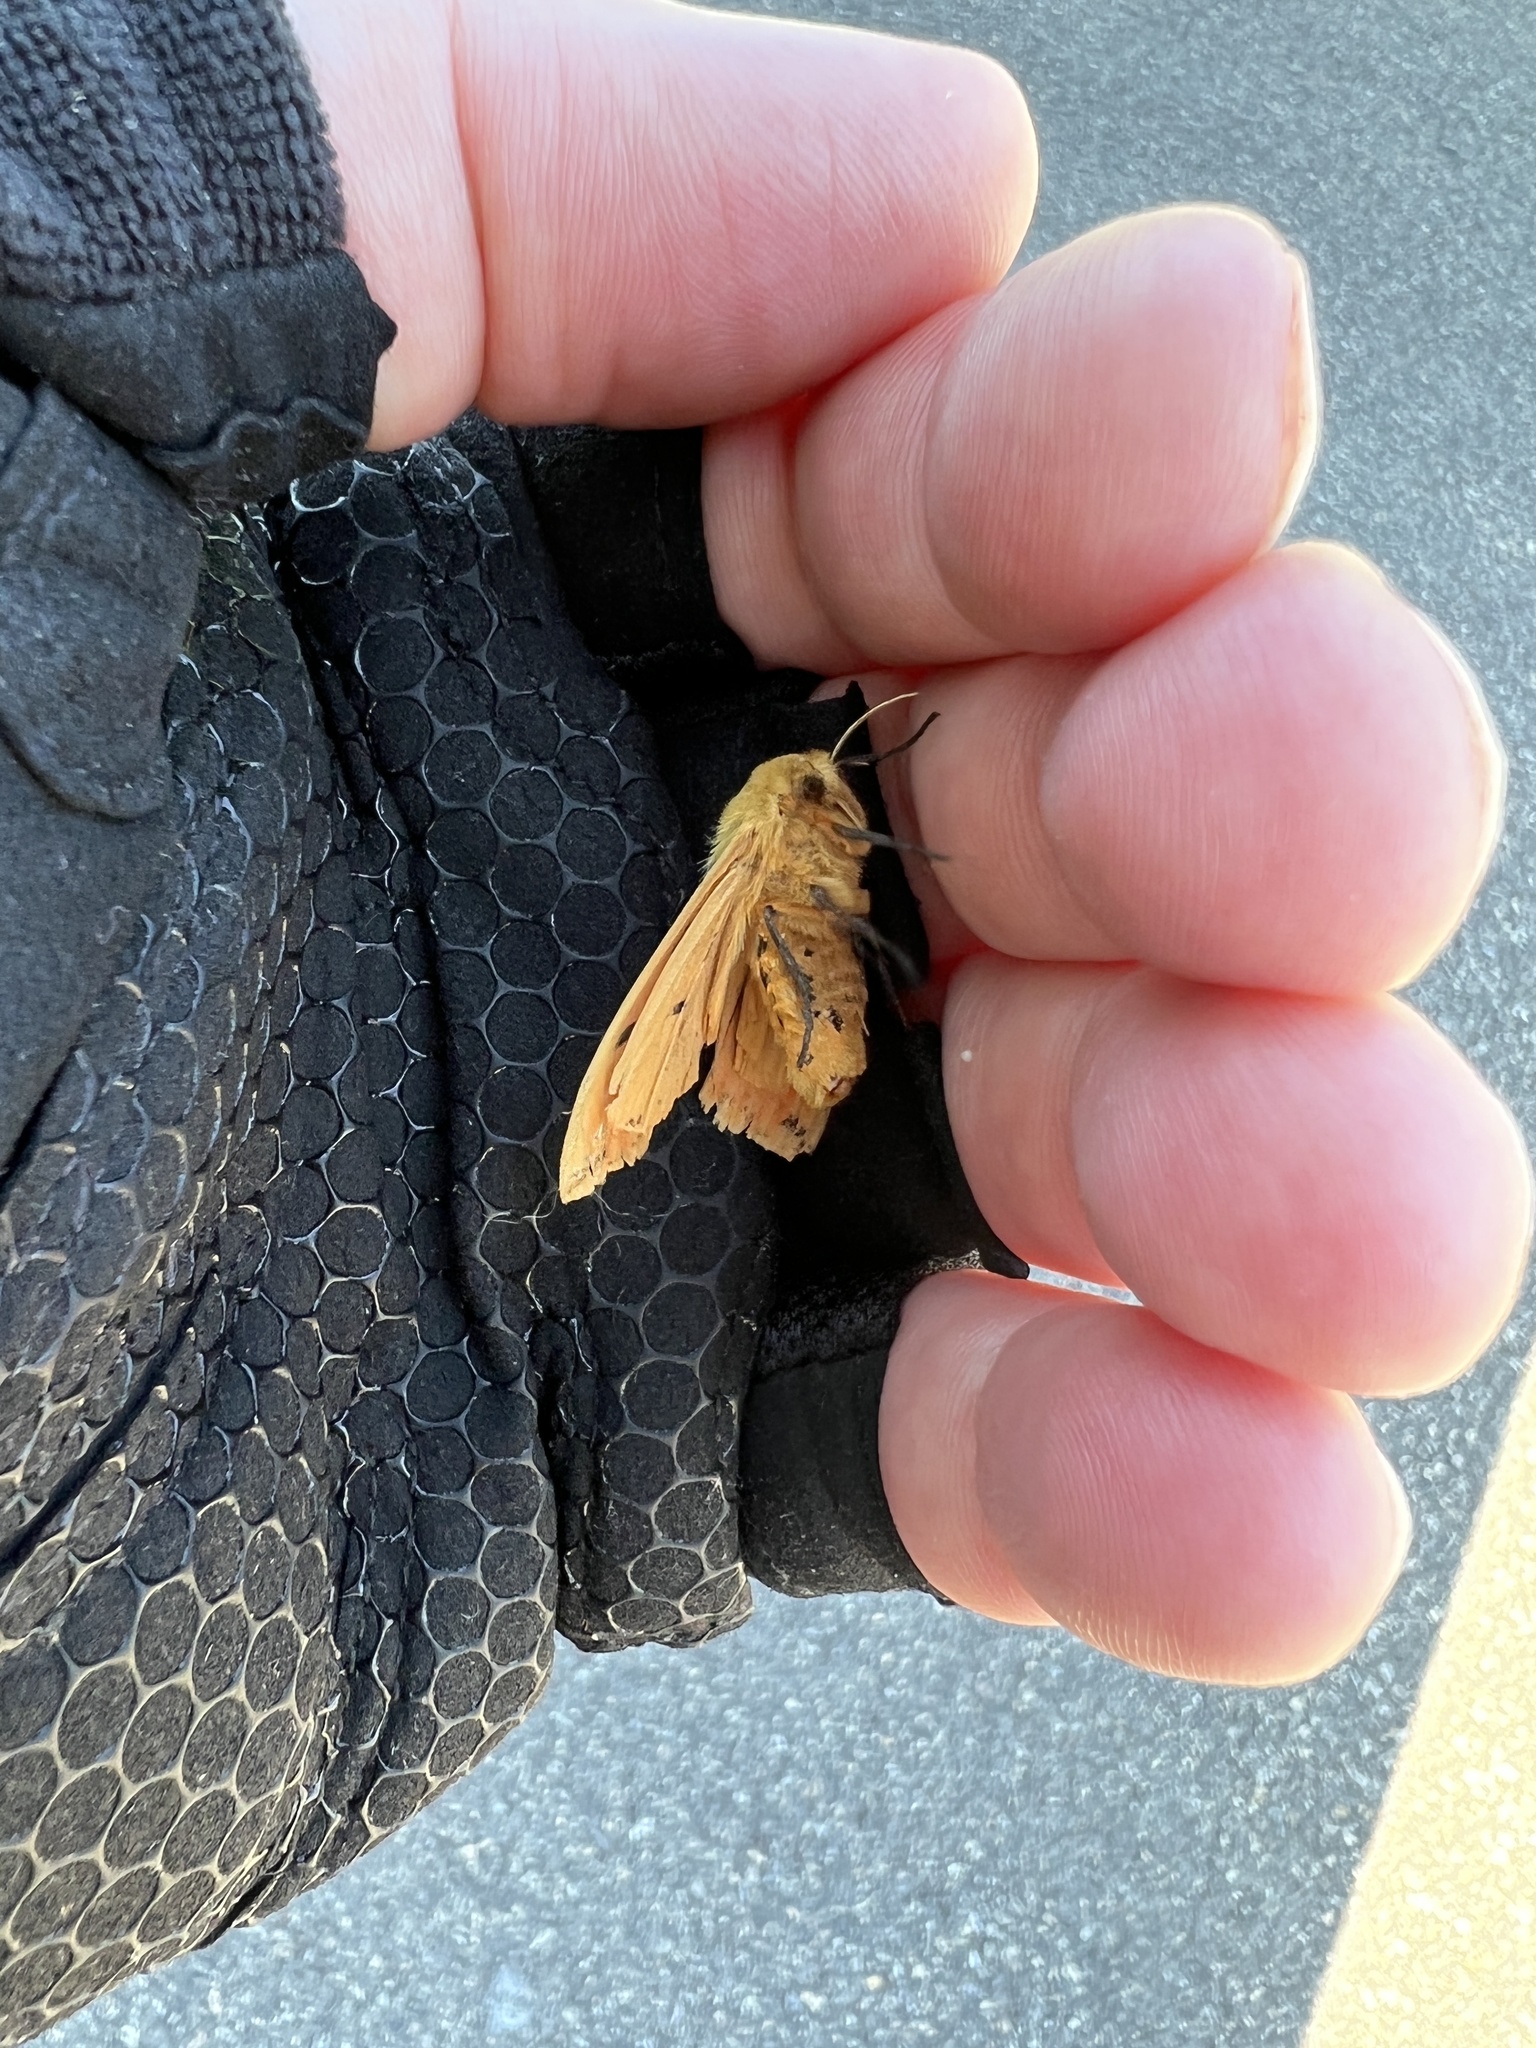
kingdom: Animalia
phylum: Arthropoda
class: Insecta
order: Lepidoptera
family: Erebidae
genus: Pyrrharctia
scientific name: Pyrrharctia isabella
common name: Isabella tiger moth
